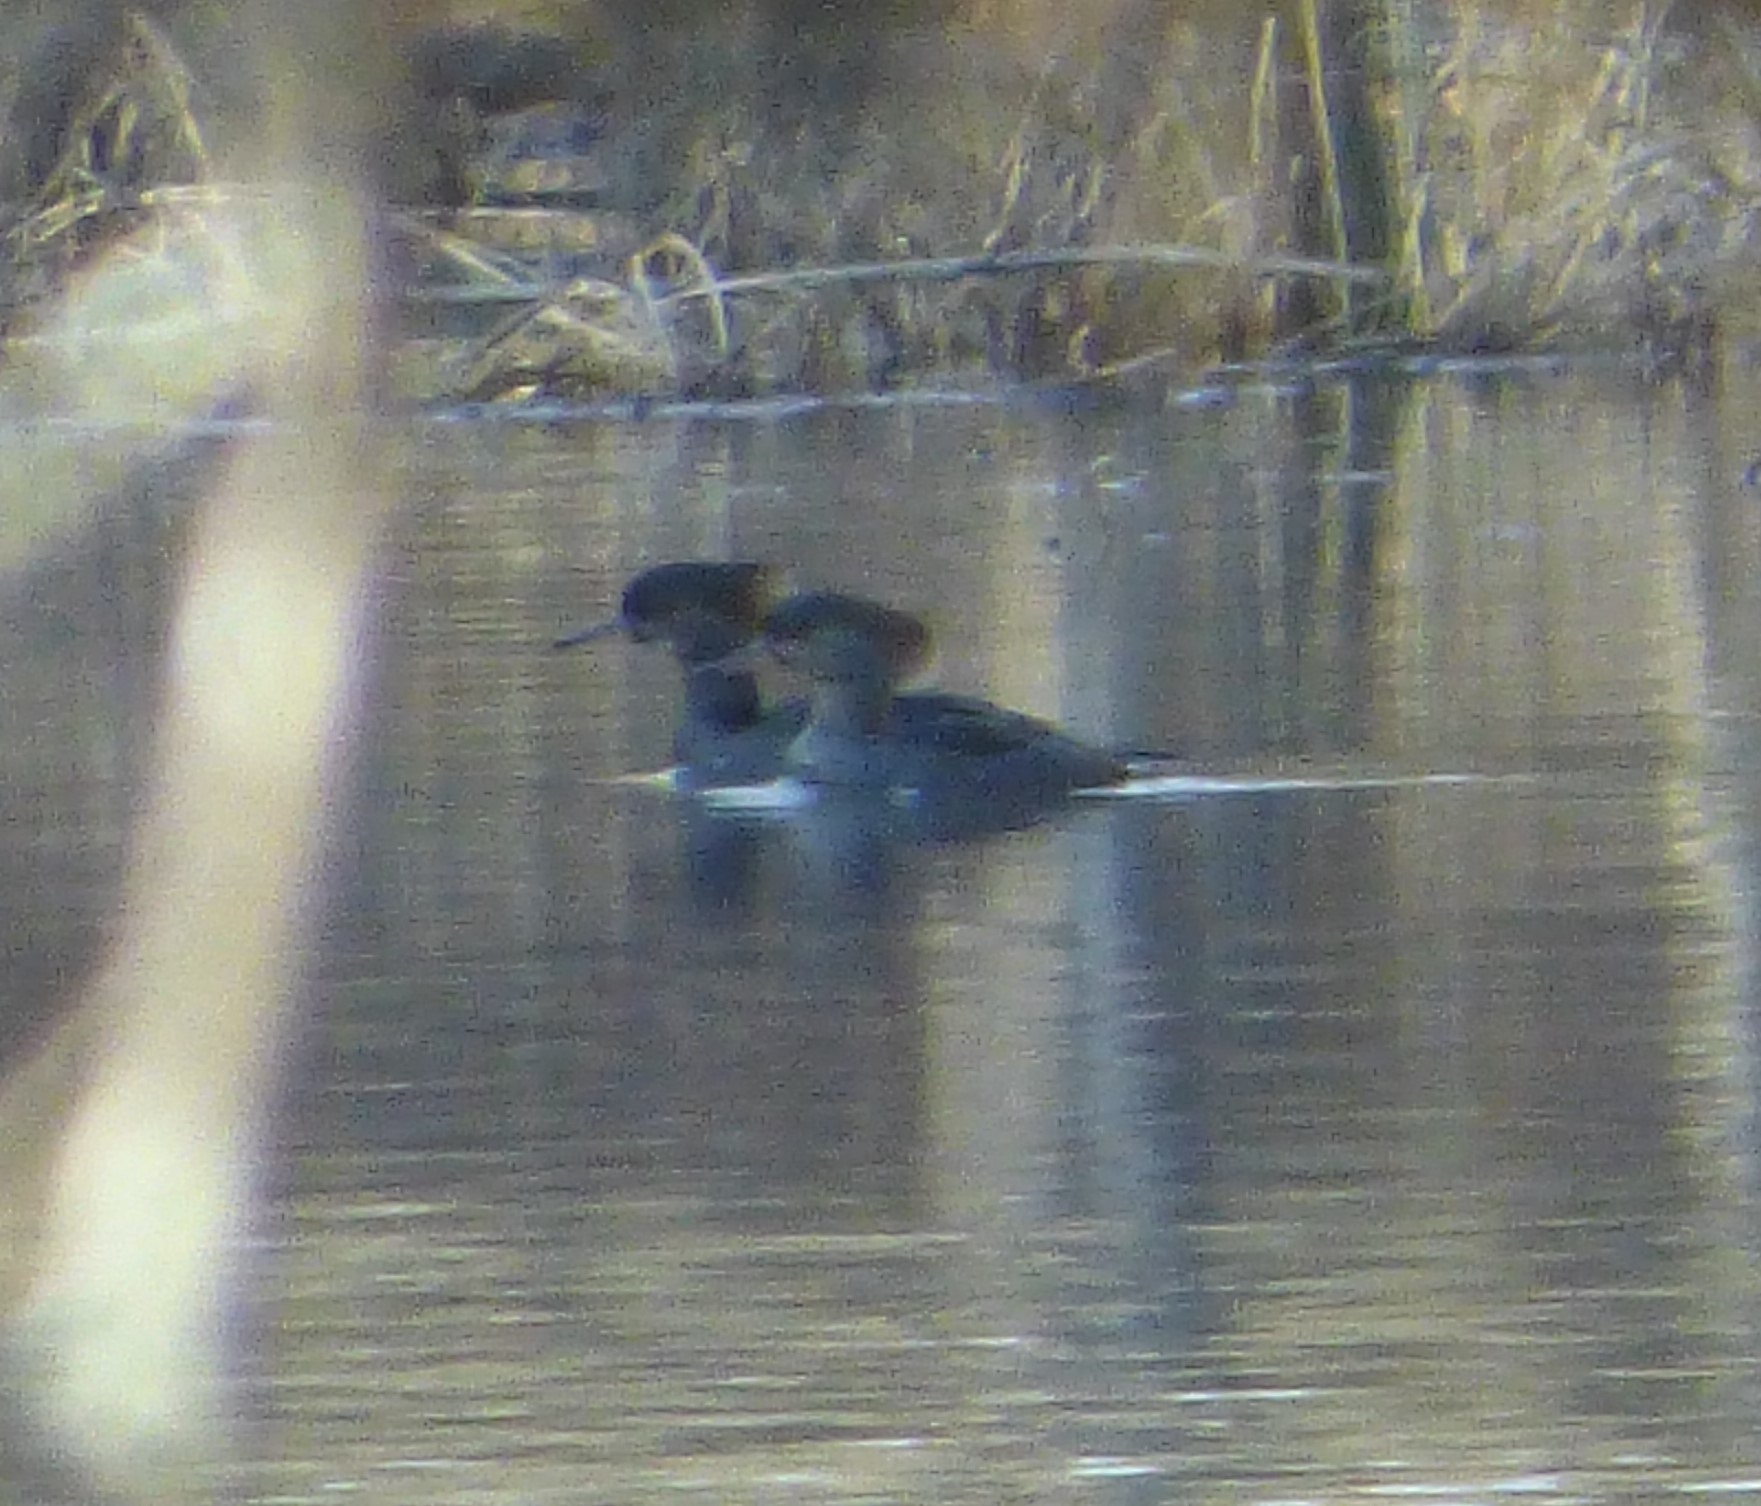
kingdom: Animalia
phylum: Chordata
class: Aves
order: Anseriformes
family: Anatidae
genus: Lophodytes
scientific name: Lophodytes cucullatus
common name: Hooded merganser
